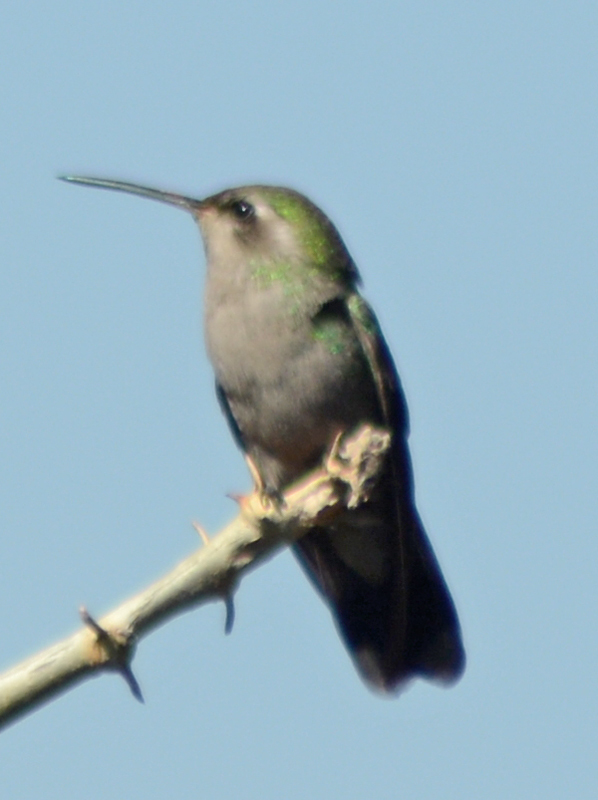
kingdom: Animalia
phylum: Chordata
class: Aves
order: Apodiformes
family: Trochilidae
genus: Cynanthus
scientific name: Cynanthus latirostris
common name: Broad-billed hummingbird
